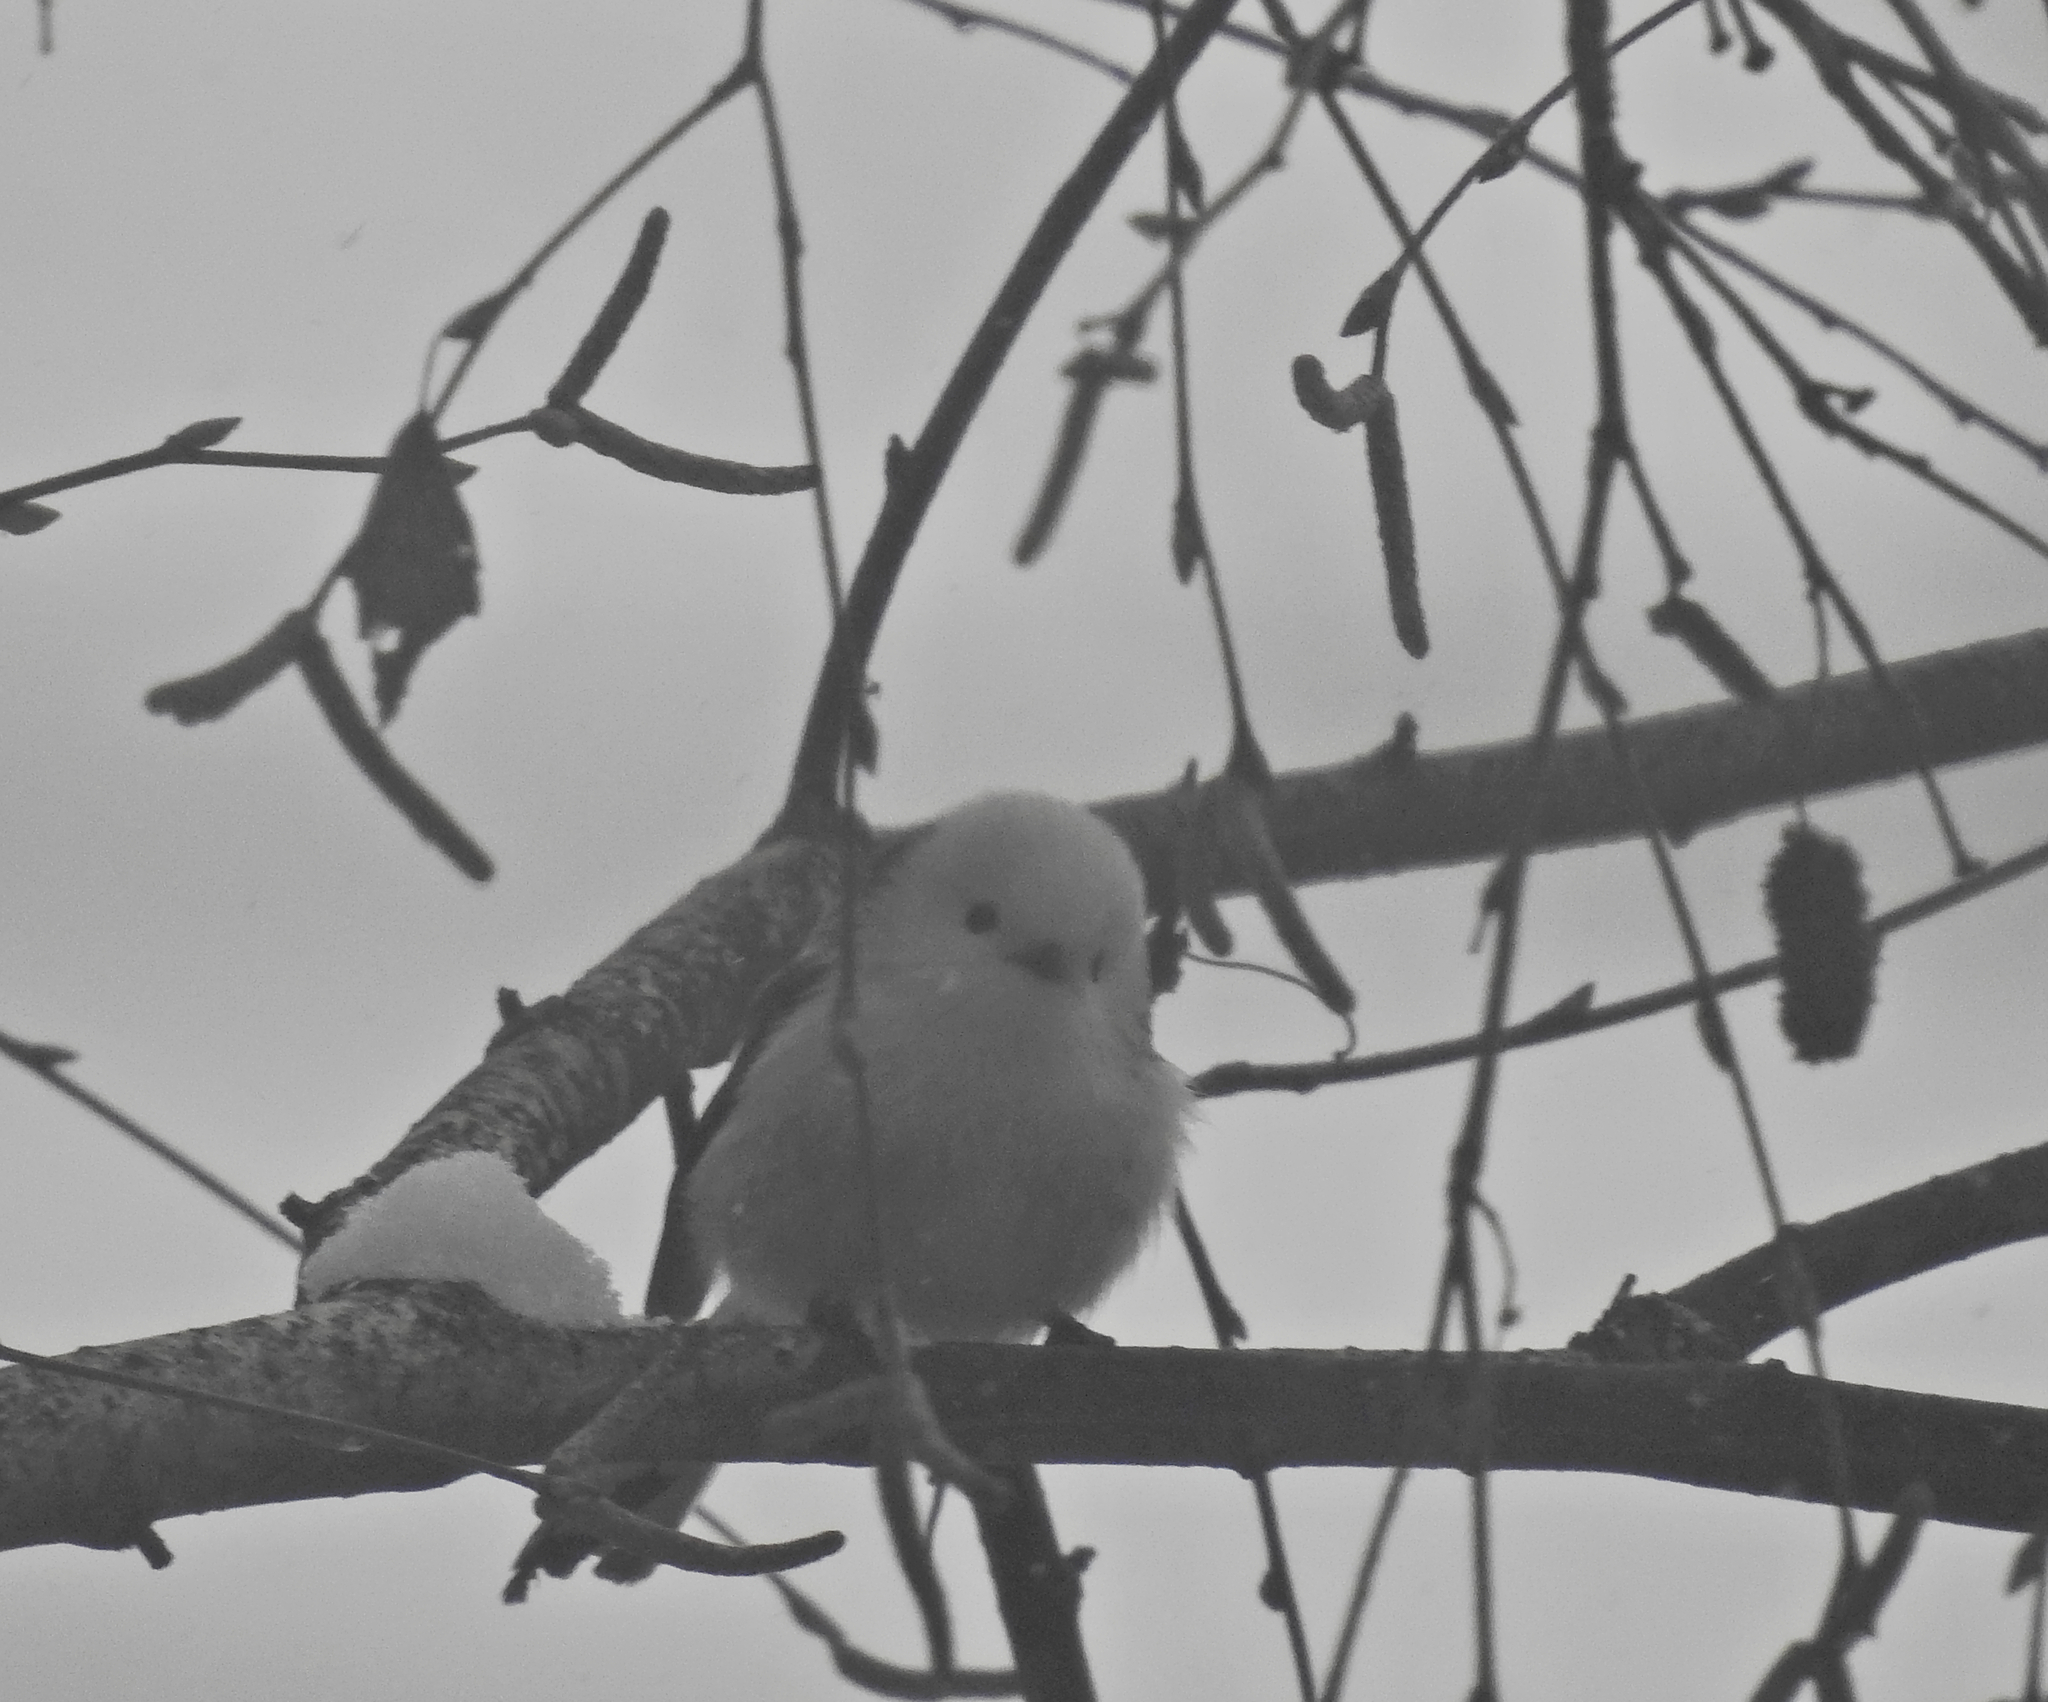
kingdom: Animalia
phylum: Chordata
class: Aves
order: Passeriformes
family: Aegithalidae
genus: Aegithalos
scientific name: Aegithalos caudatus
